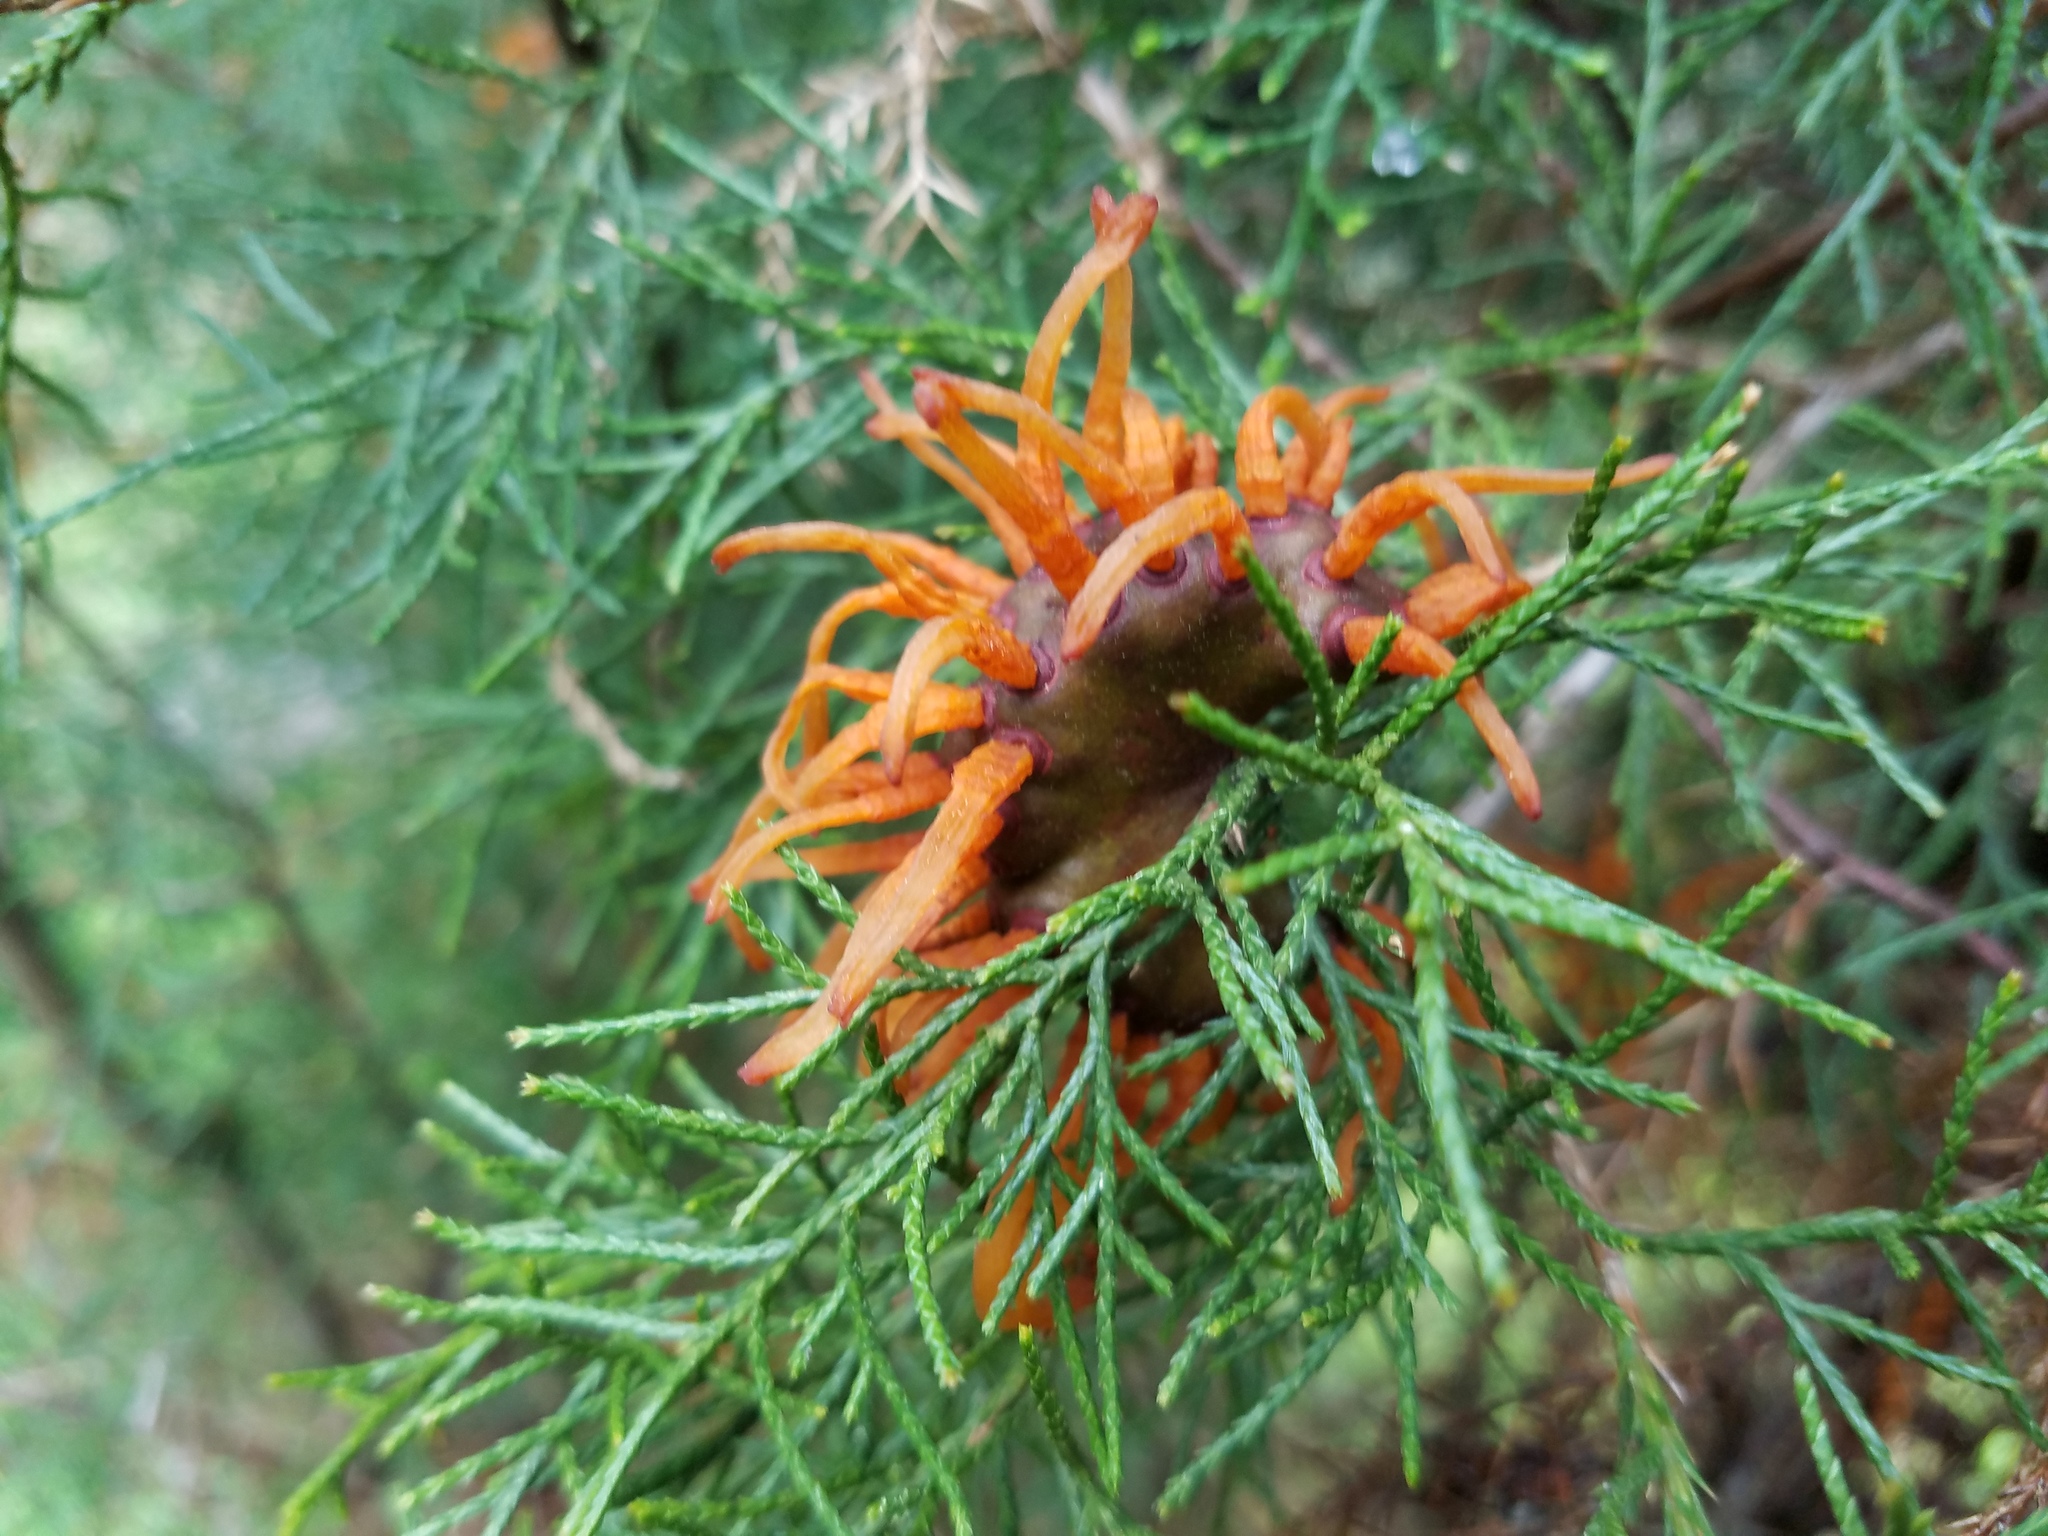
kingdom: Fungi
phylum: Basidiomycota
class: Pucciniomycetes
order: Pucciniales
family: Gymnosporangiaceae
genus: Gymnosporangium
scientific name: Gymnosporangium juniperi-virginianae
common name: Juniper-apple rust
